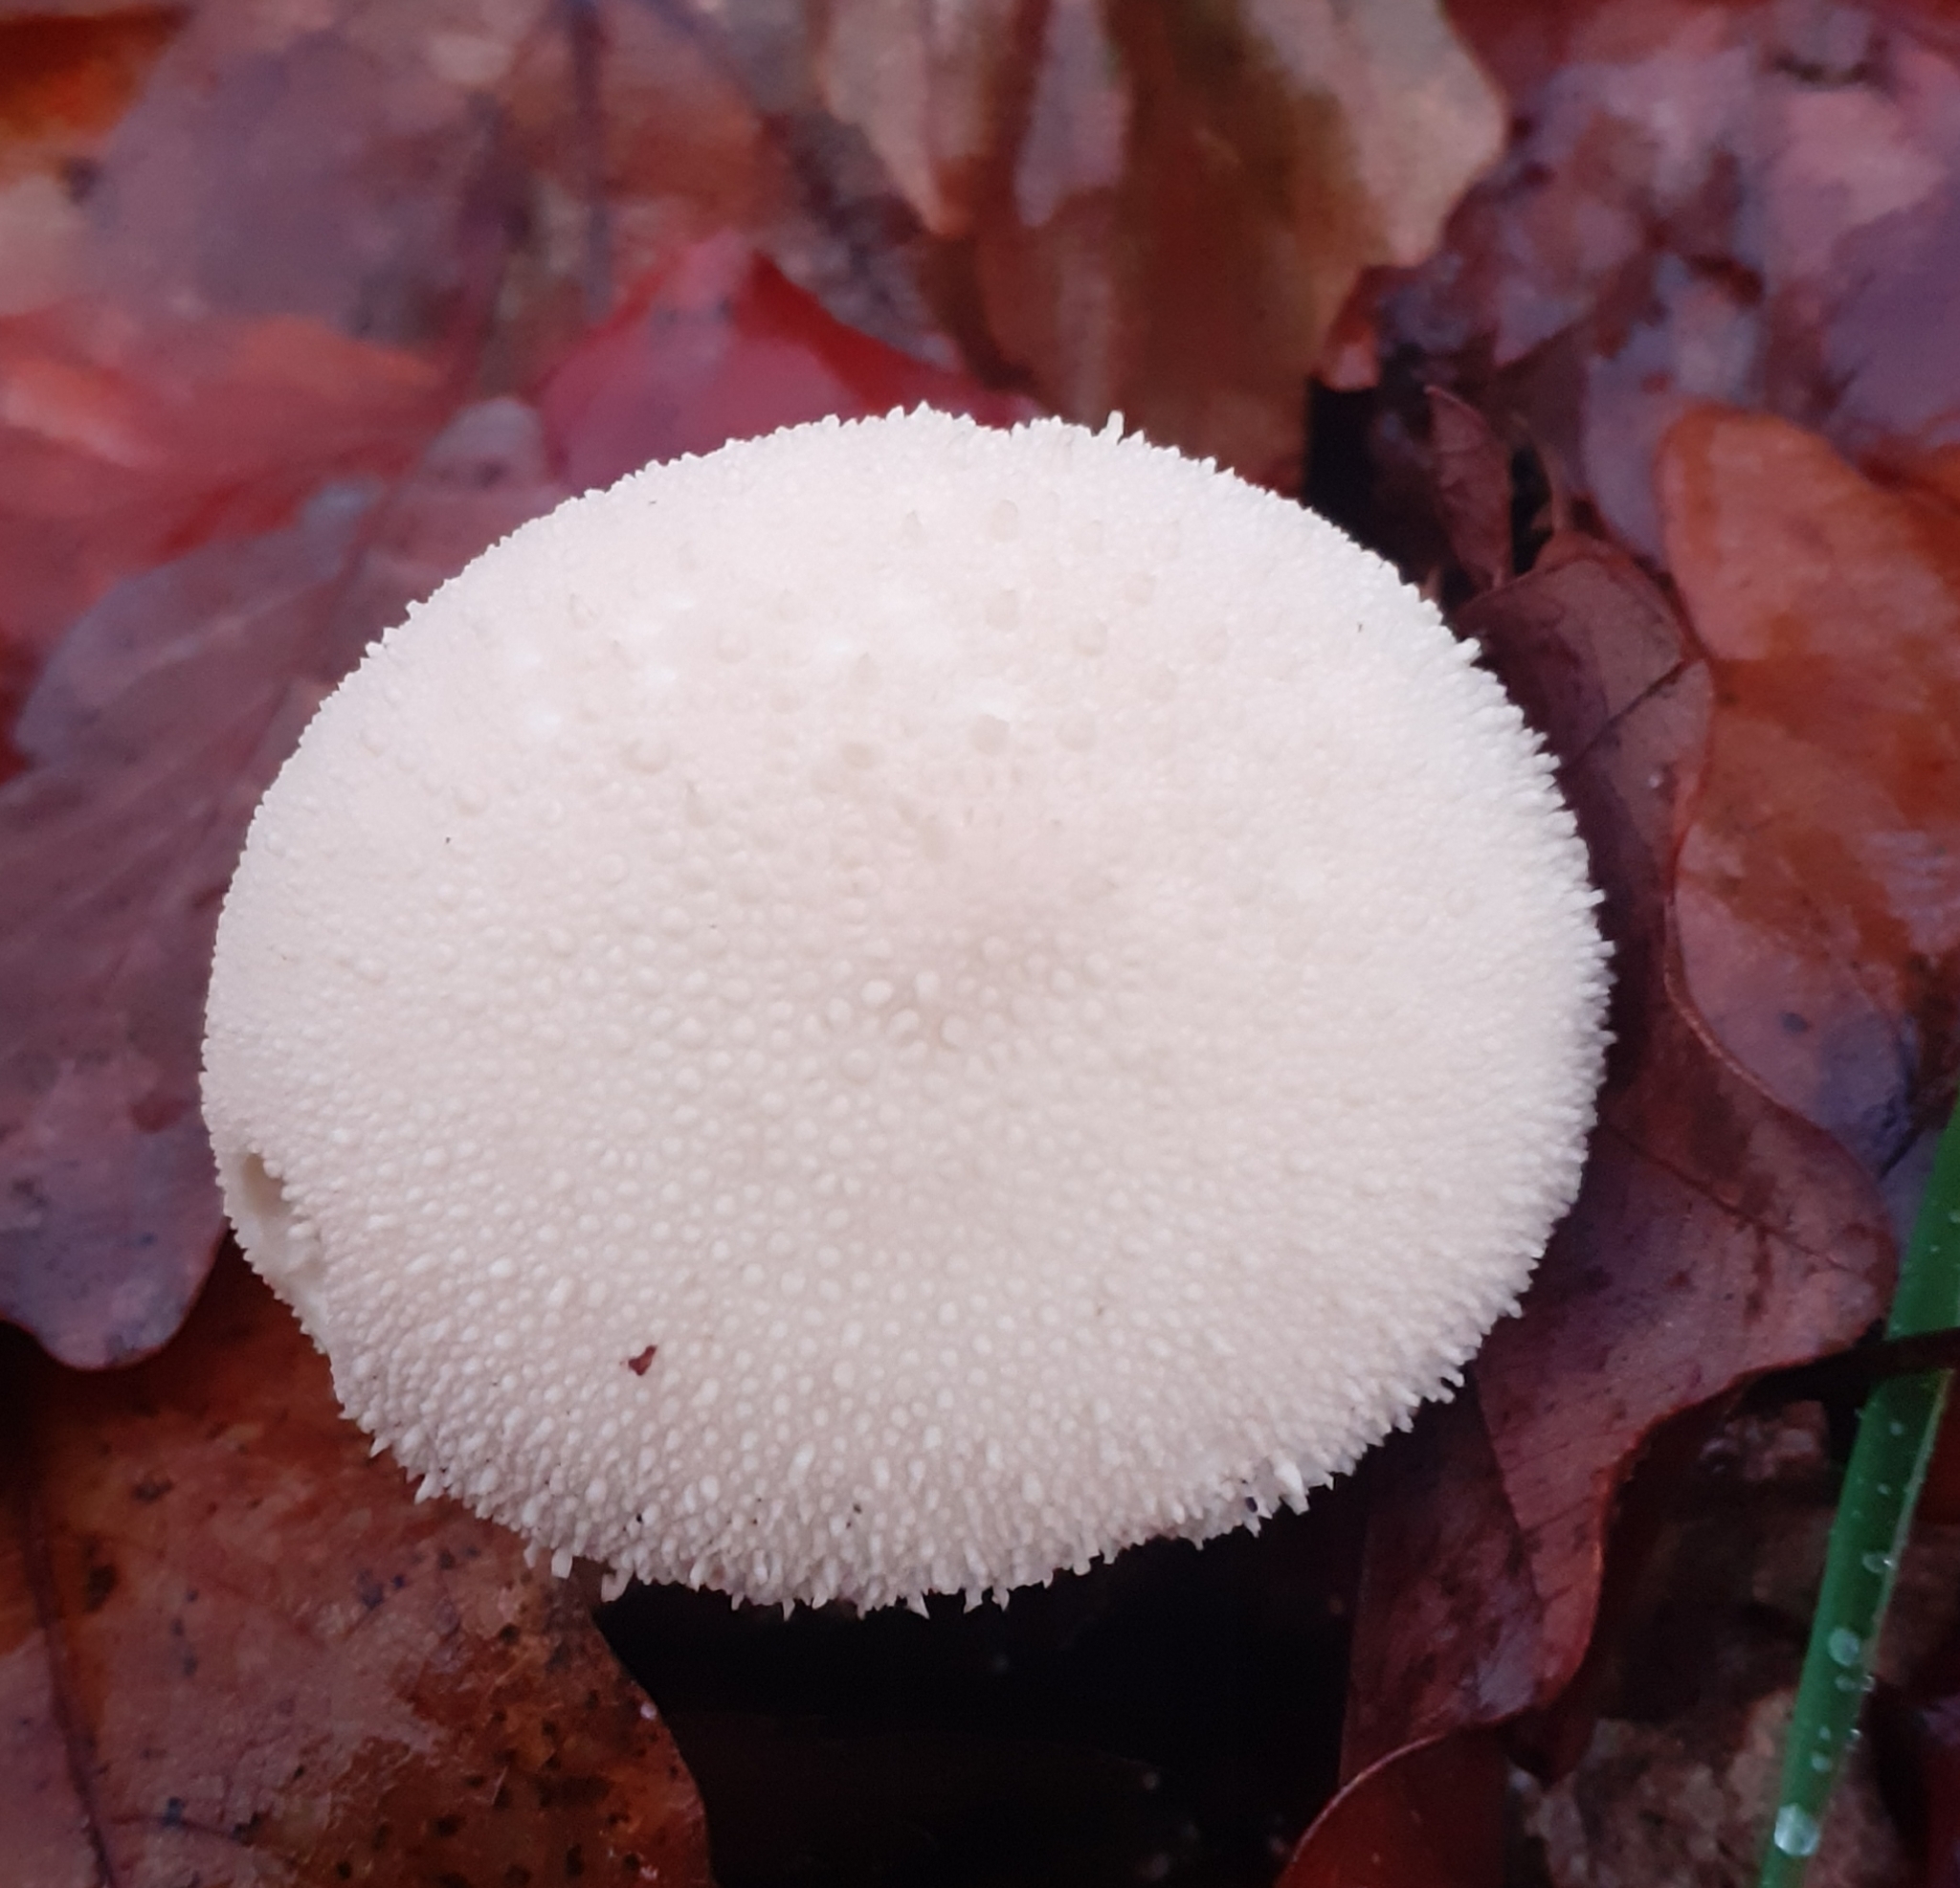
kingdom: Fungi
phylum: Basidiomycota
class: Agaricomycetes
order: Agaricales
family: Lycoperdaceae
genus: Lycoperdon
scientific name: Lycoperdon perlatum
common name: Common puffball
